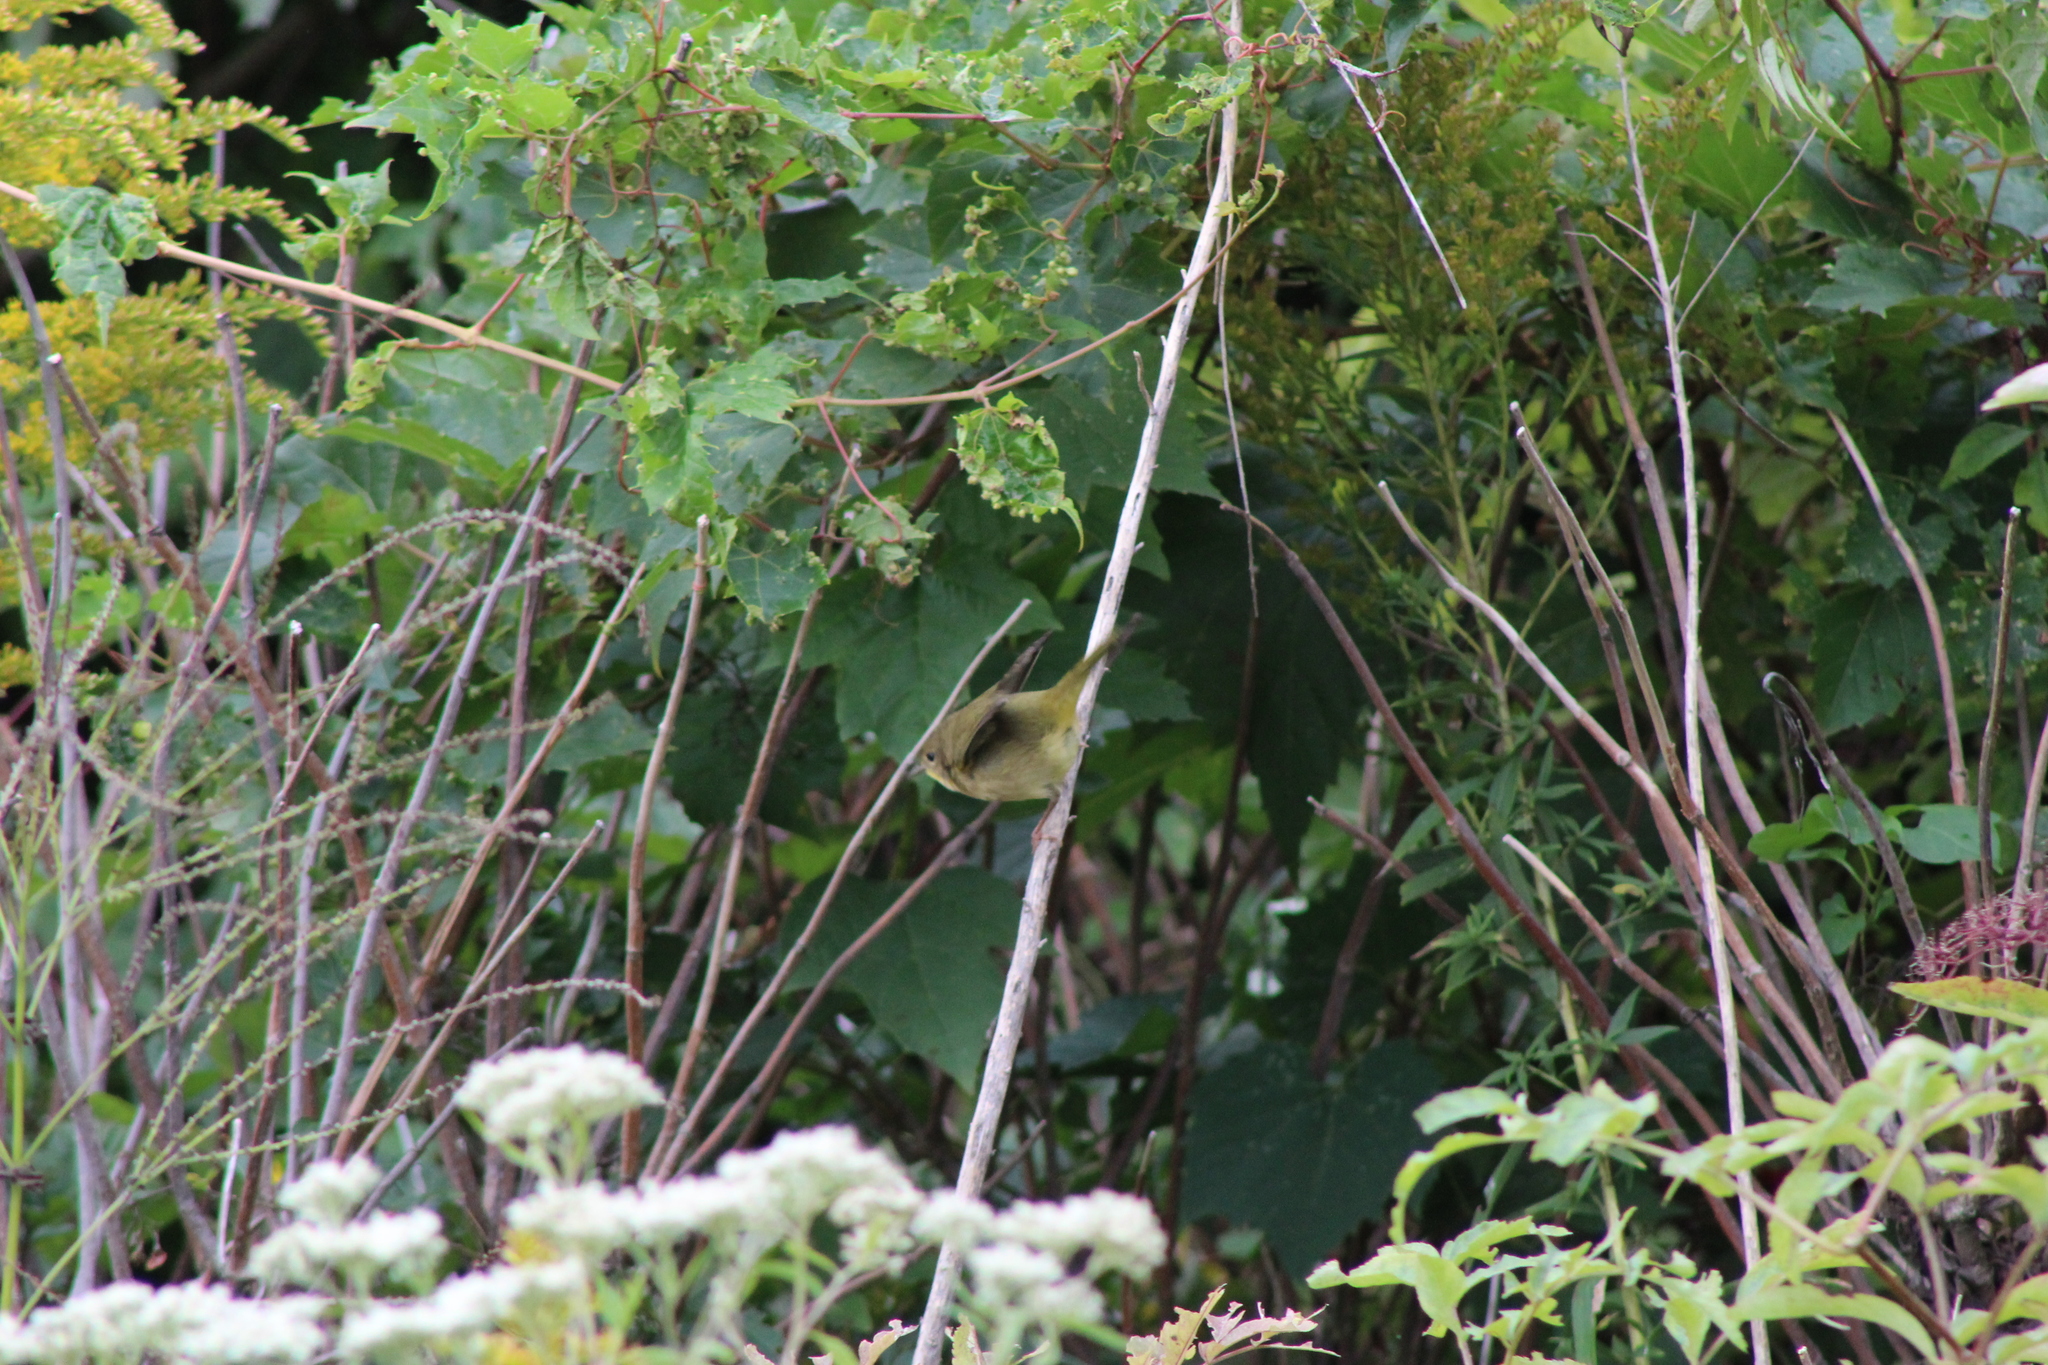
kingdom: Animalia
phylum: Chordata
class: Aves
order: Passeriformes
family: Parulidae
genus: Geothlypis
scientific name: Geothlypis trichas
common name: Common yellowthroat
